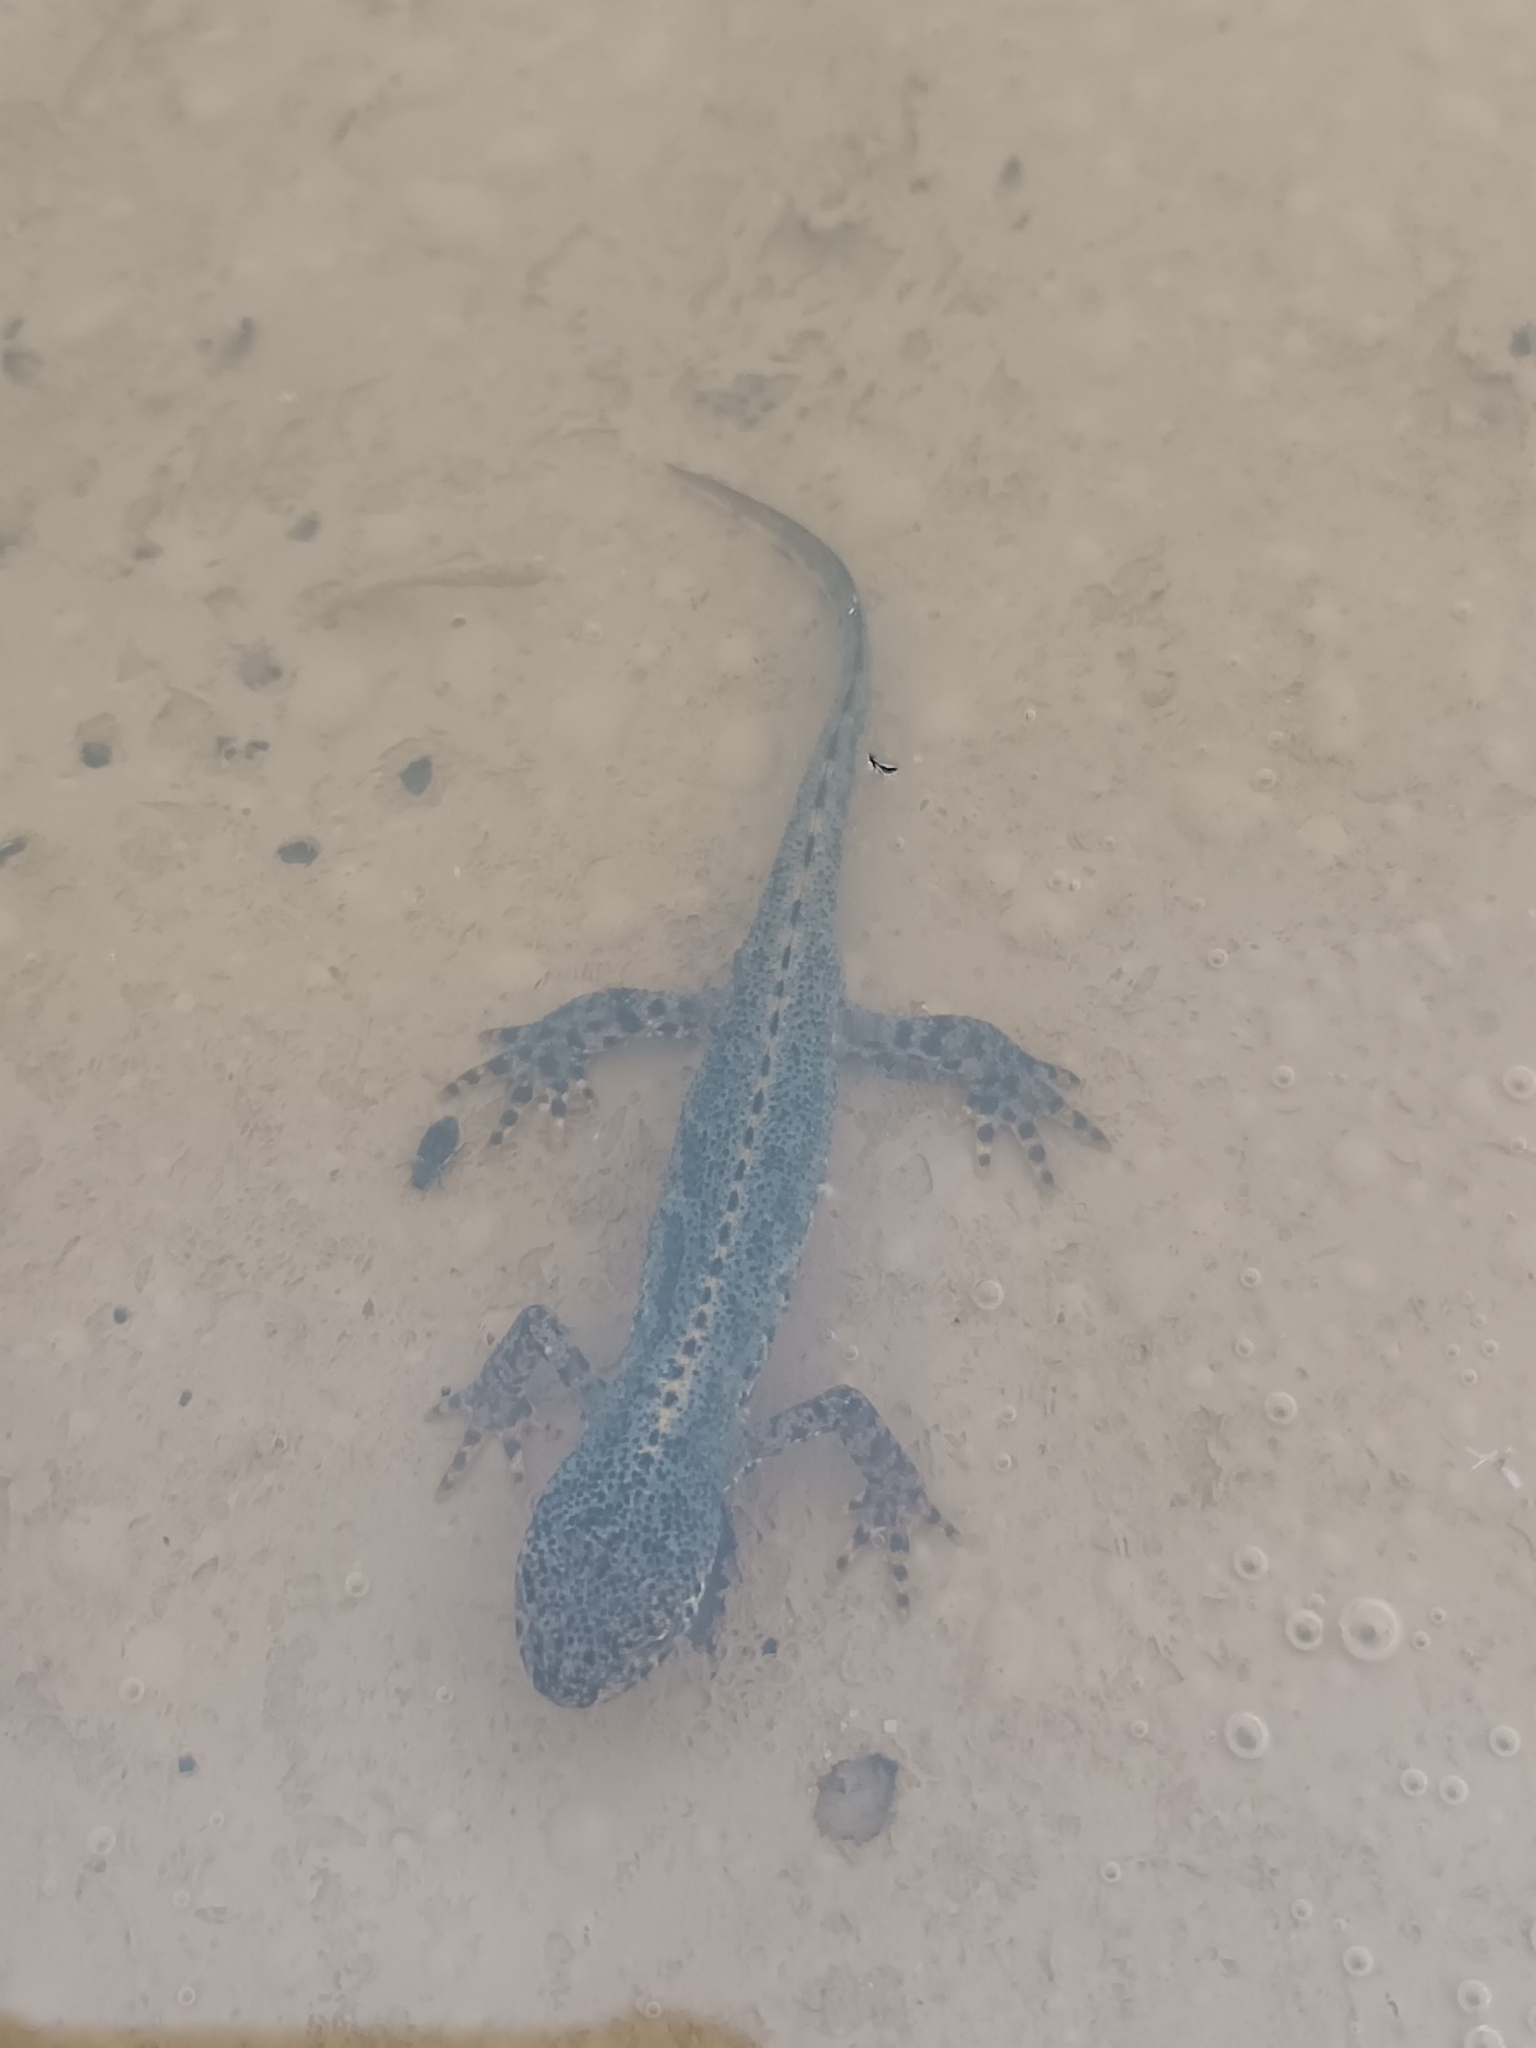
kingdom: Animalia
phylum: Chordata
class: Amphibia
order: Caudata
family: Salamandridae
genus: Ichthyosaura
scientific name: Ichthyosaura alpestris
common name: Alpine newt
